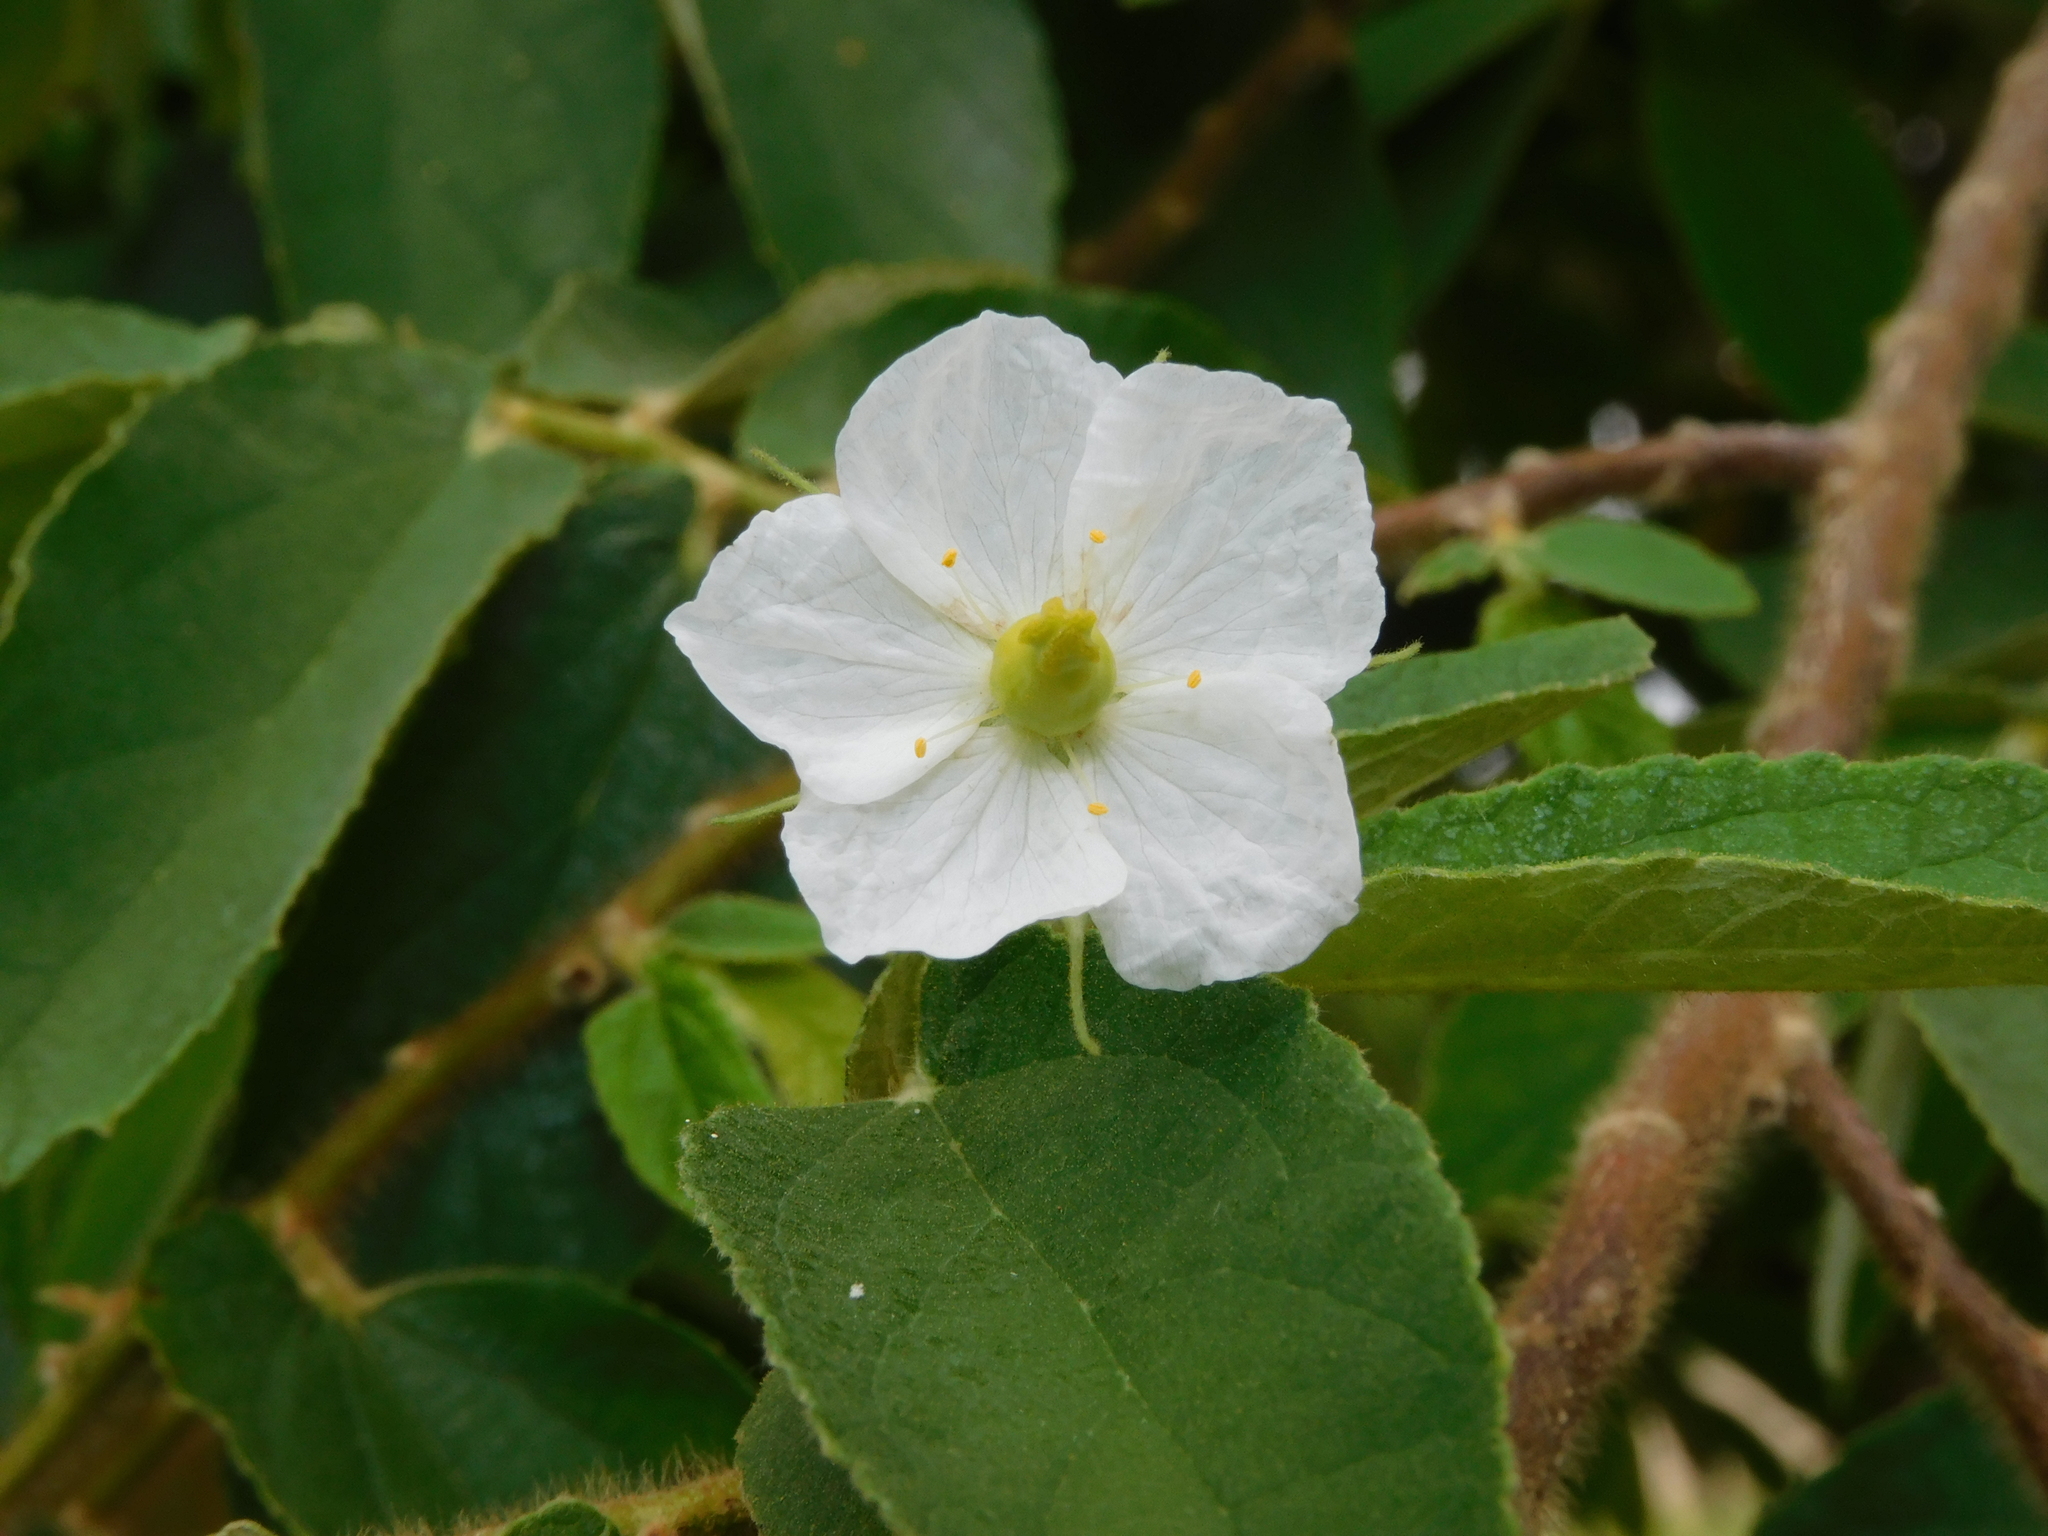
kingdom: Plantae
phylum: Tracheophyta
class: Magnoliopsida
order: Malvales
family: Muntingiaceae
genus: Muntingia
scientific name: Muntingia calabura
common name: Strawberrytree
